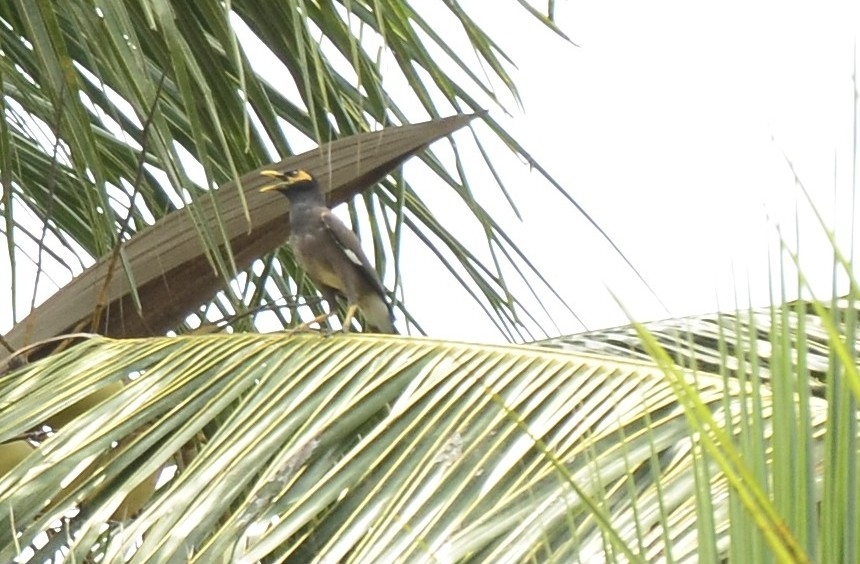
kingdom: Animalia
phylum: Chordata
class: Aves
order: Passeriformes
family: Sturnidae
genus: Acridotheres
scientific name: Acridotheres tristis
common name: Common myna
